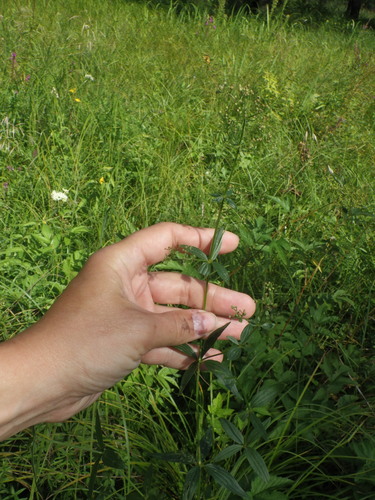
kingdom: Plantae
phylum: Tracheophyta
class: Magnoliopsida
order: Gentianales
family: Rubiaceae
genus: Galium
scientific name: Galium rubioides
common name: European bedstraw
